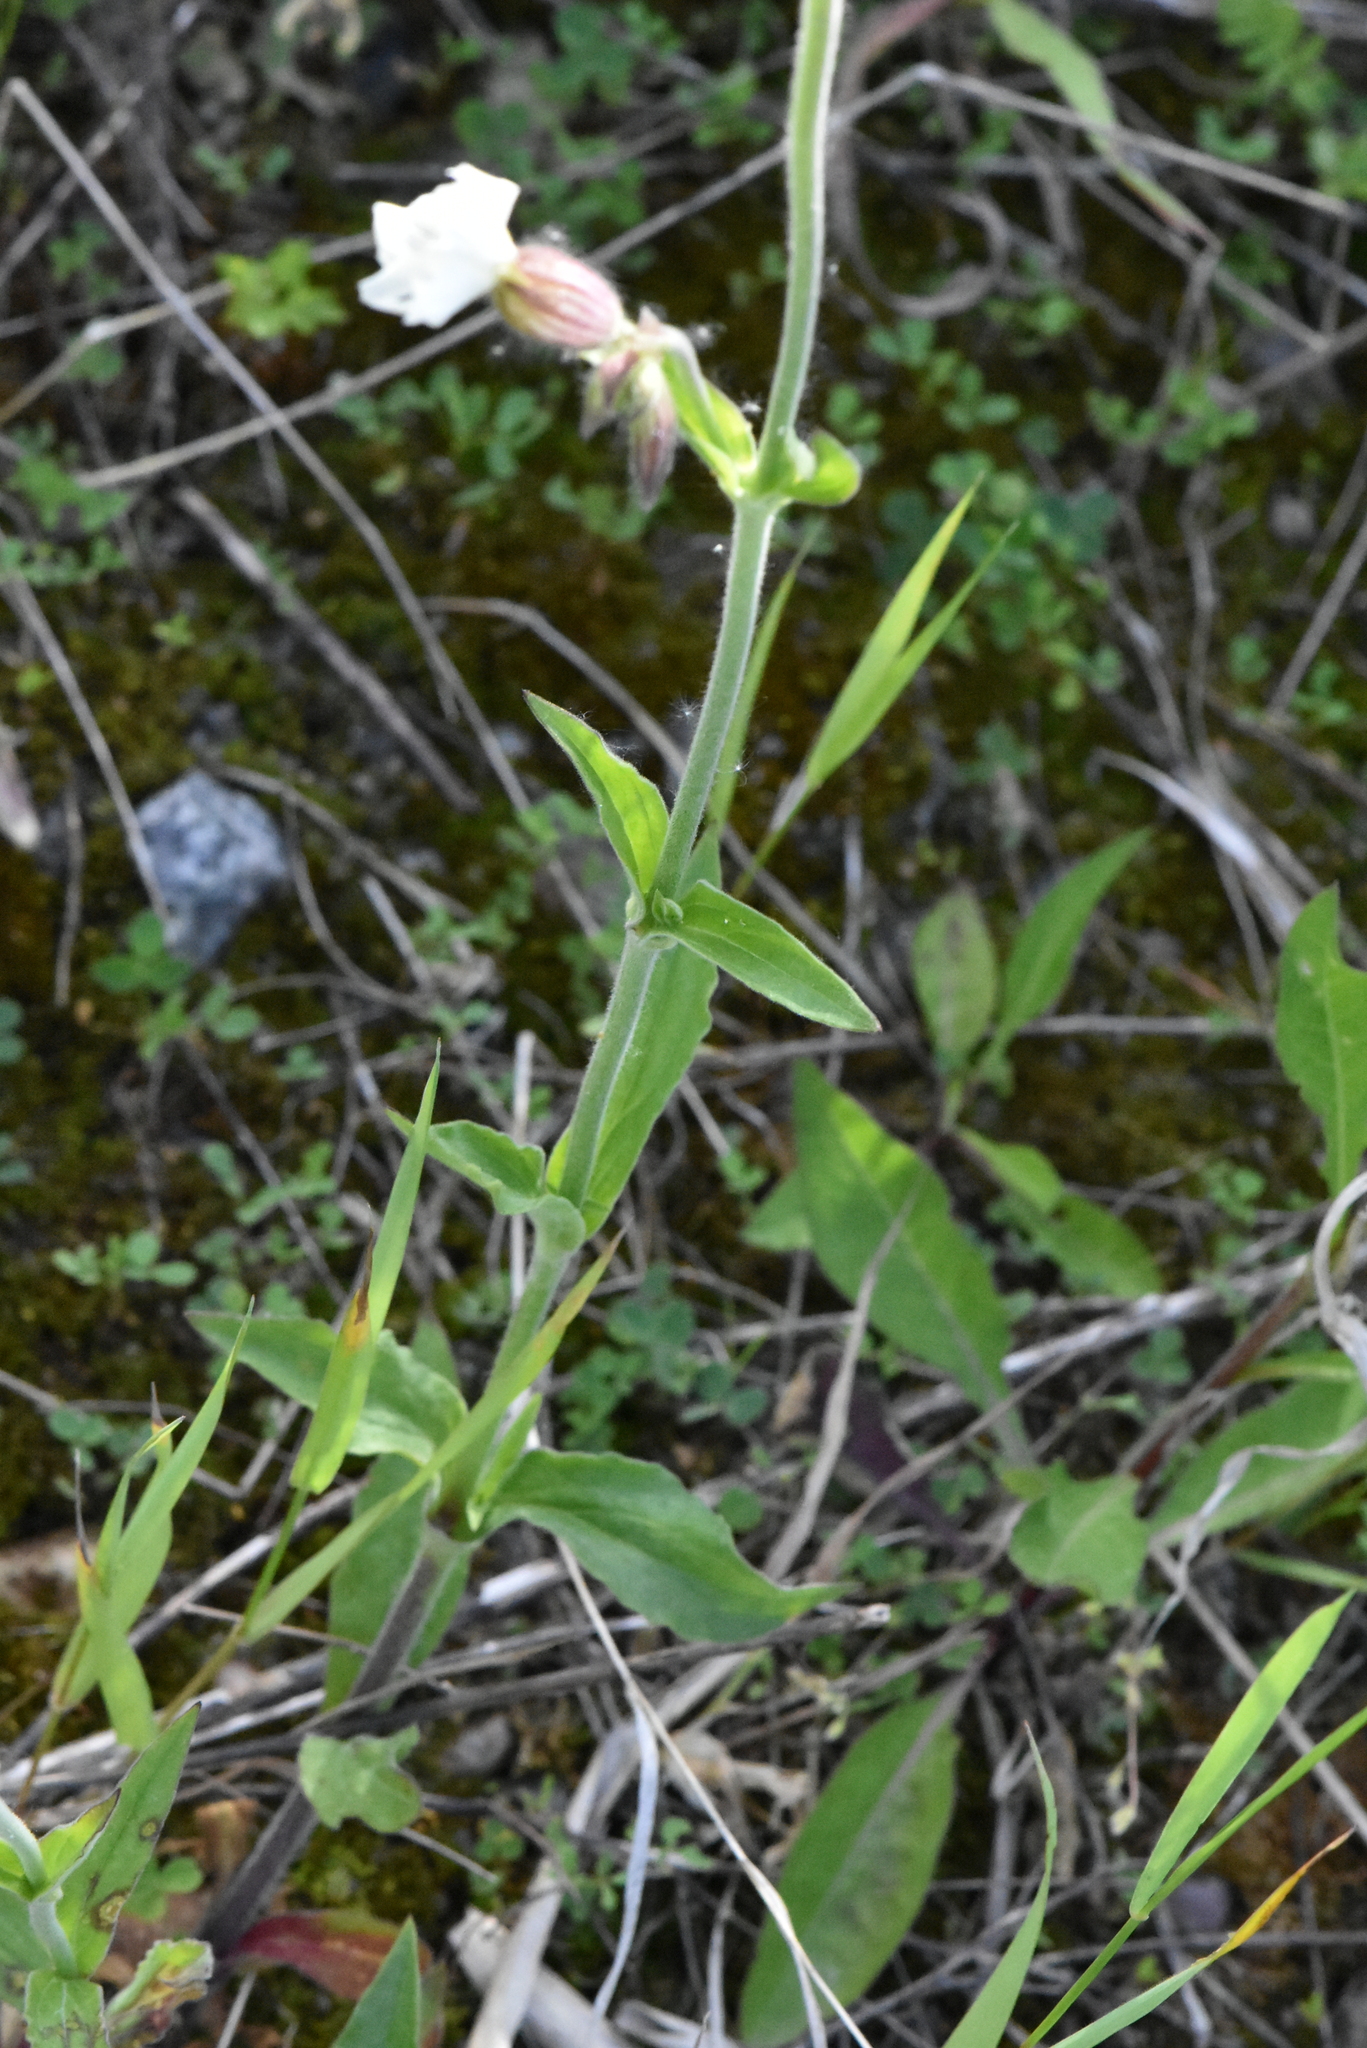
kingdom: Plantae
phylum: Tracheophyta
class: Magnoliopsida
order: Caryophyllales
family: Caryophyllaceae
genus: Silene
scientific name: Silene latifolia
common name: White campion
